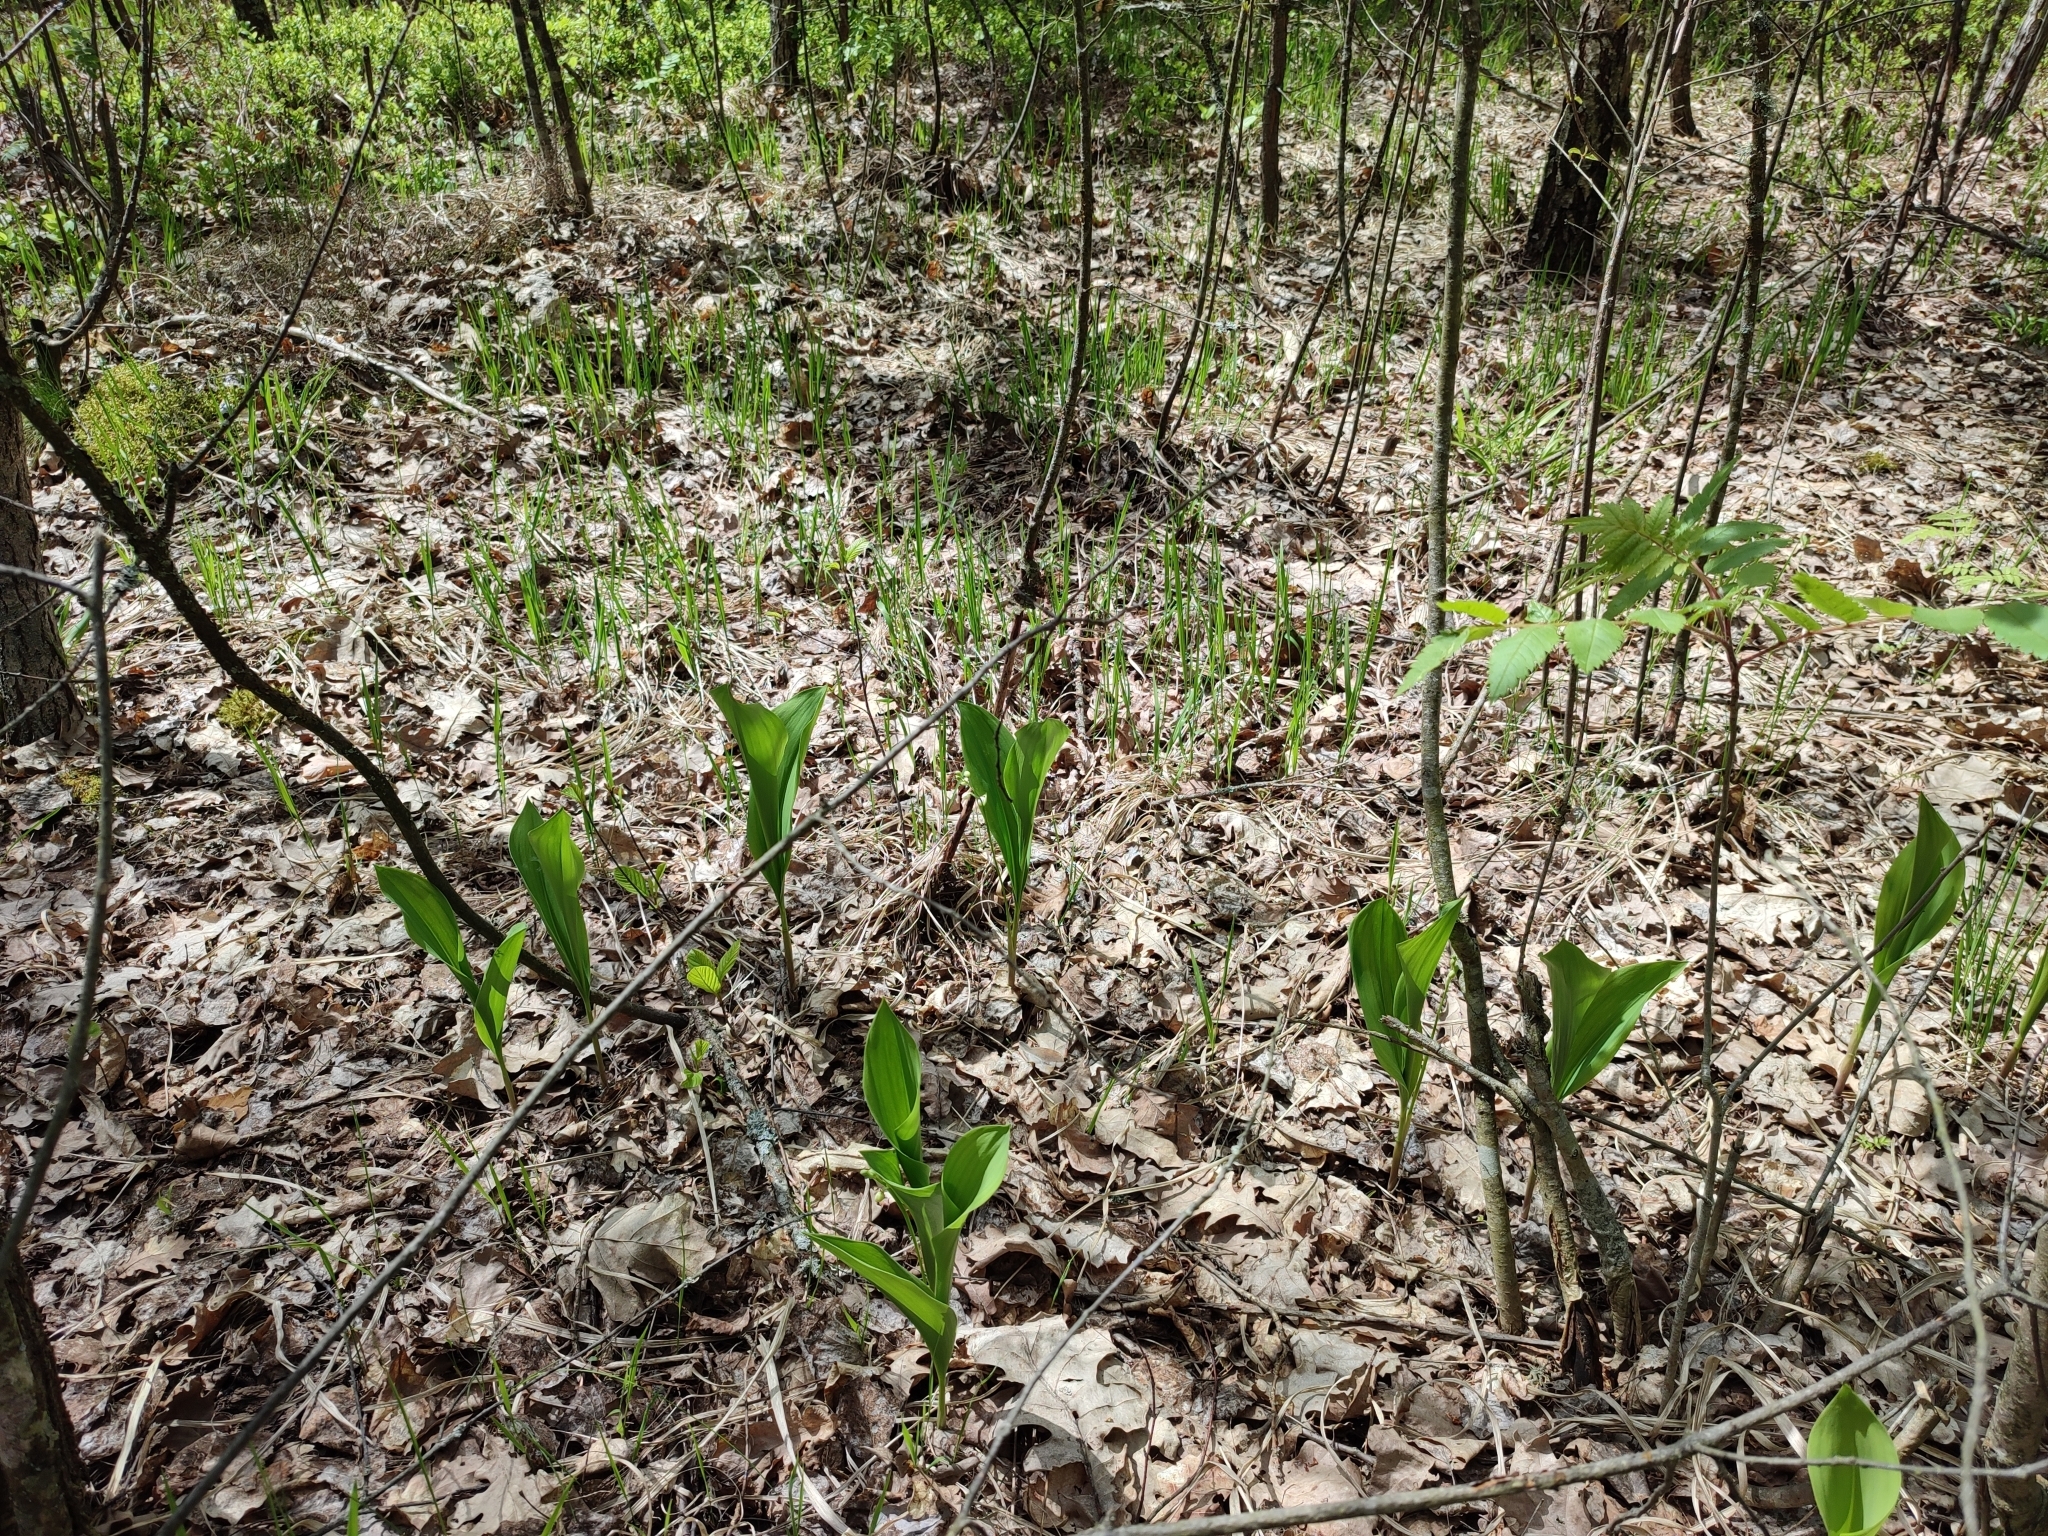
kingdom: Plantae
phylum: Tracheophyta
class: Liliopsida
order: Asparagales
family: Asparagaceae
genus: Convallaria
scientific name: Convallaria majalis
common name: Lily-of-the-valley
